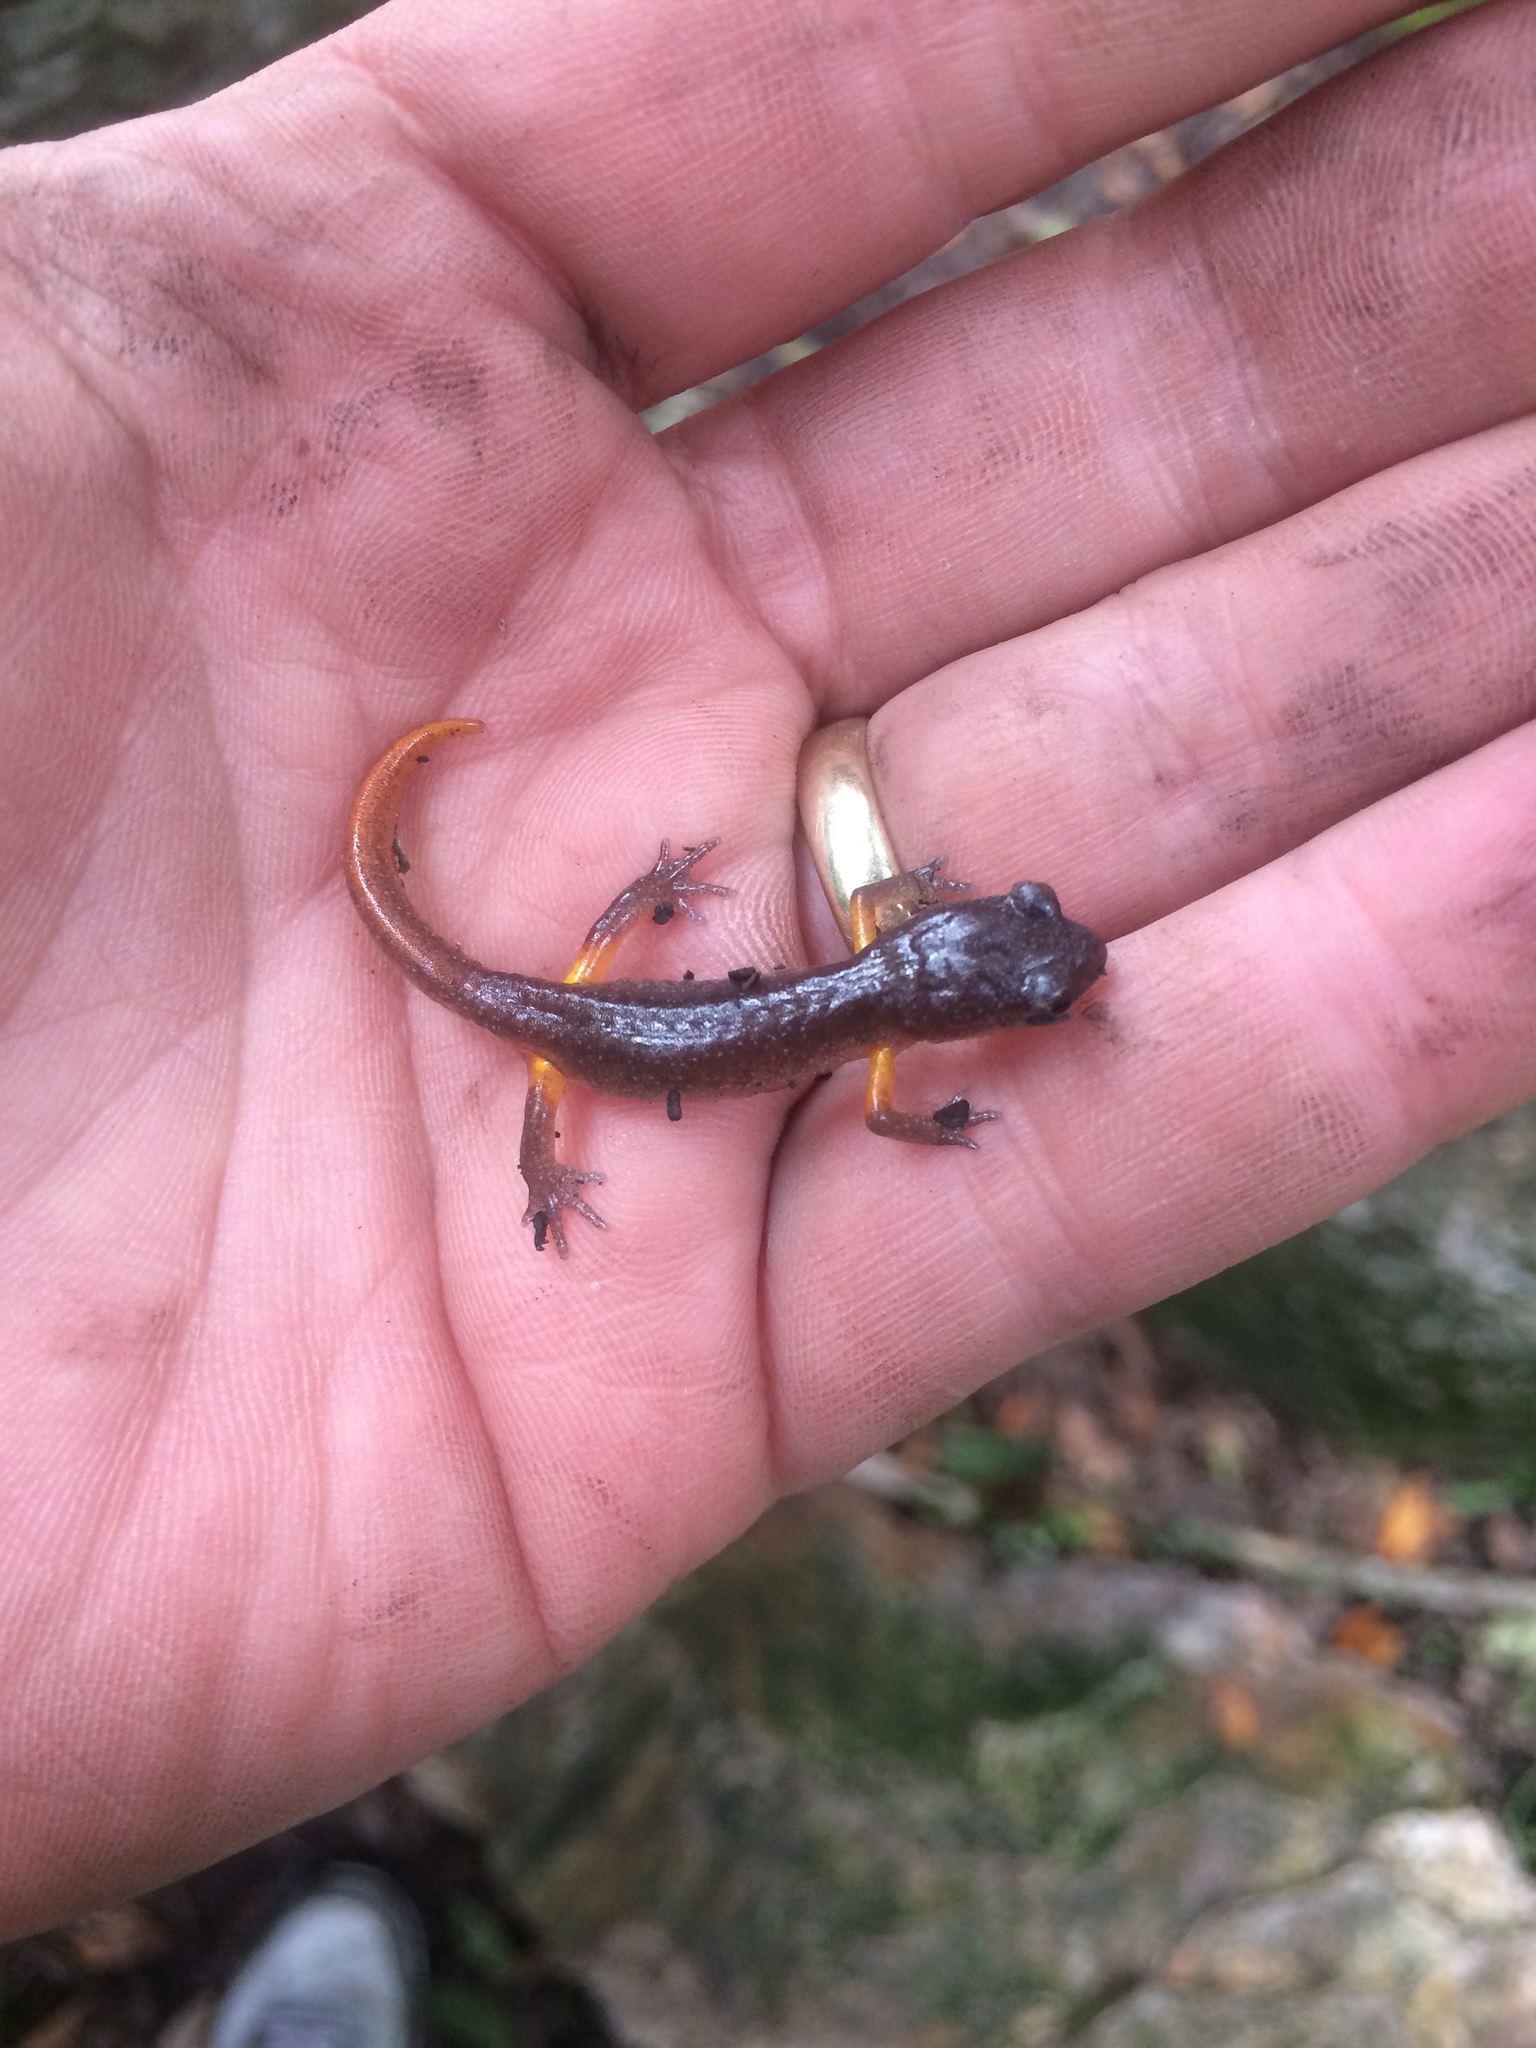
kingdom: Animalia
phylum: Chordata
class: Amphibia
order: Caudata
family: Plethodontidae
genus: Ensatina
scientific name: Ensatina eschscholtzii
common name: Ensatina
